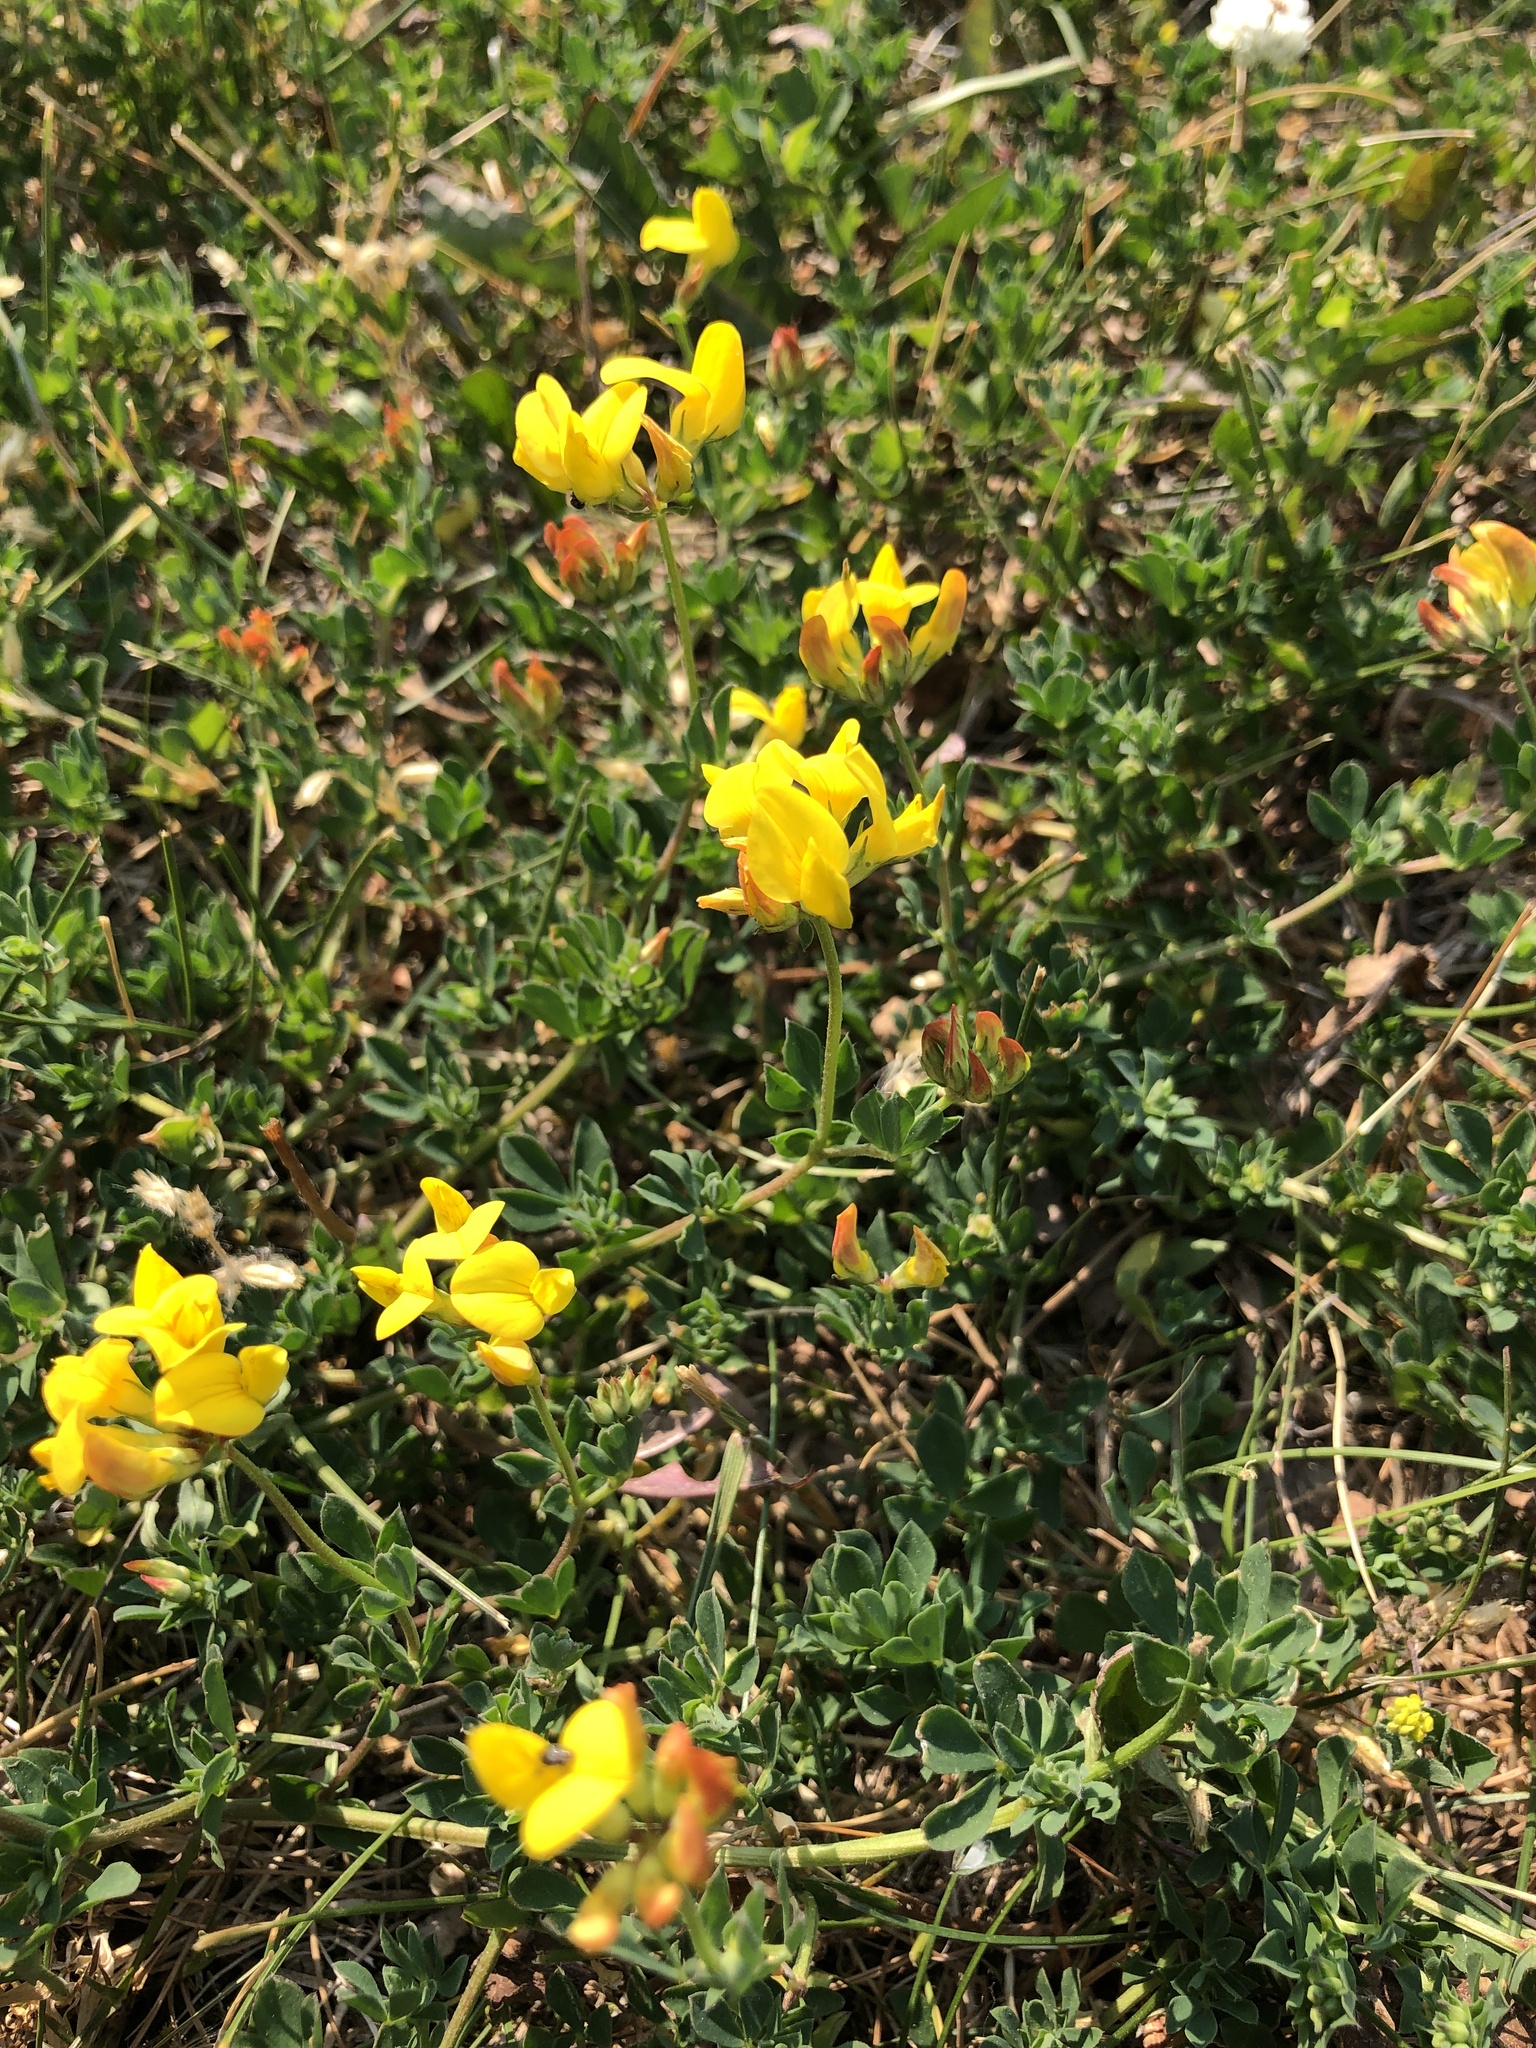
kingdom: Plantae
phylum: Tracheophyta
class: Magnoliopsida
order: Fabales
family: Fabaceae
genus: Lotus
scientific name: Lotus corniculatus
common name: Common bird's-foot-trefoil
